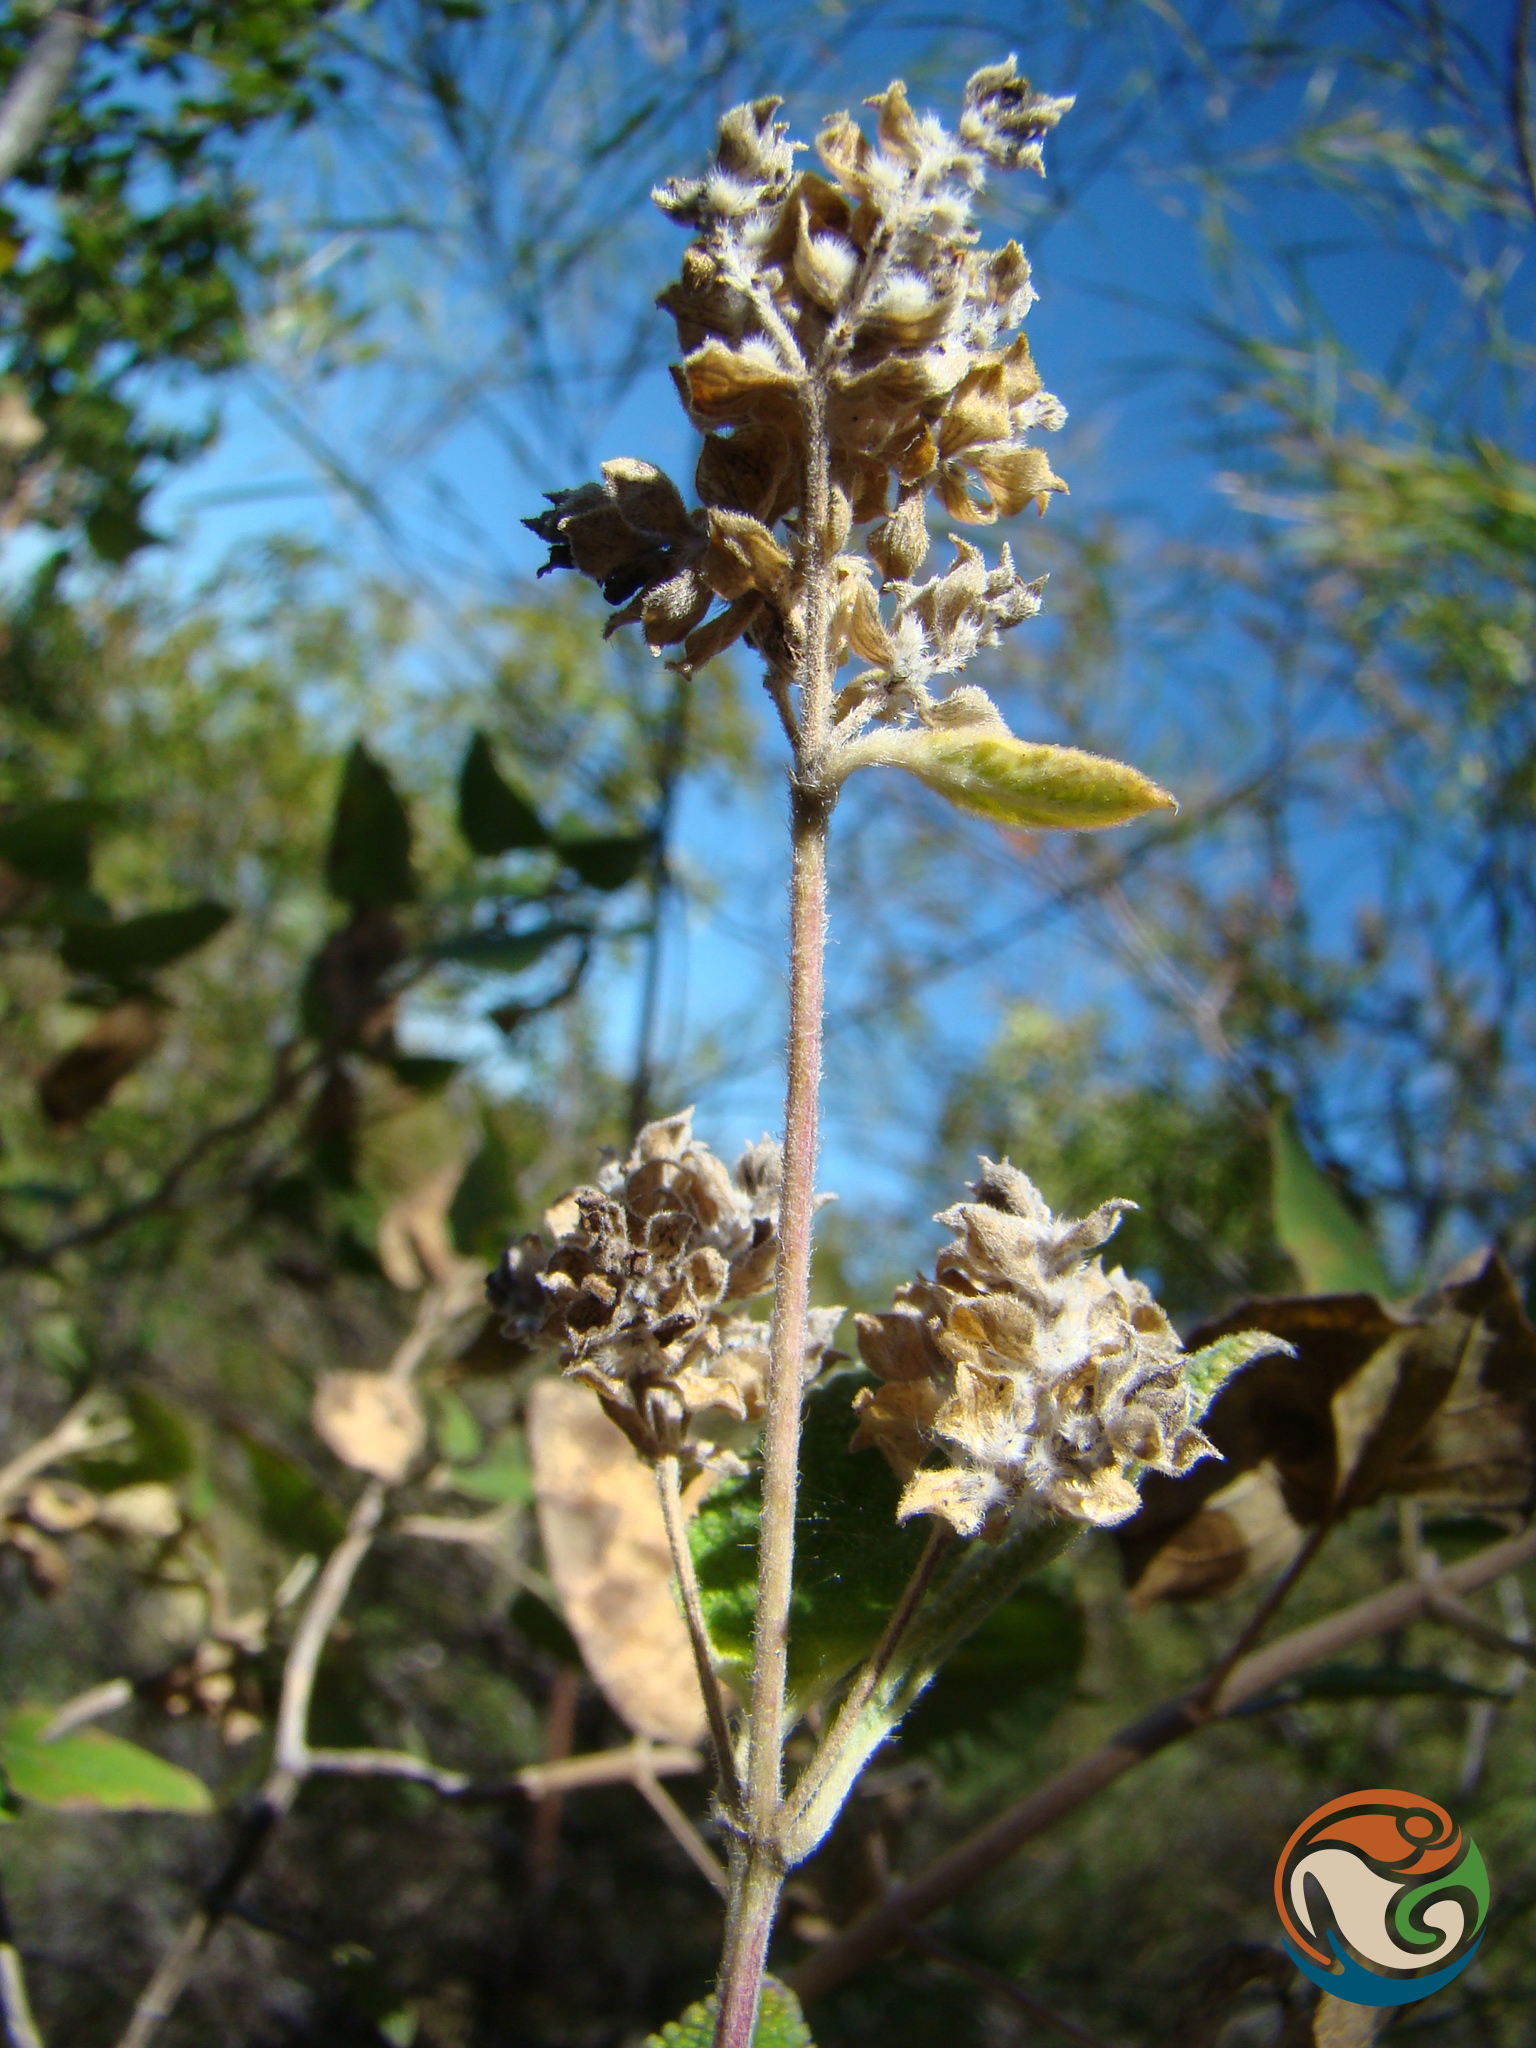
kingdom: Plantae
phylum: Tracheophyta
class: Magnoliopsida
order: Lamiales
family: Verbenaceae
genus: Lippia
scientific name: Lippia oaxacana
